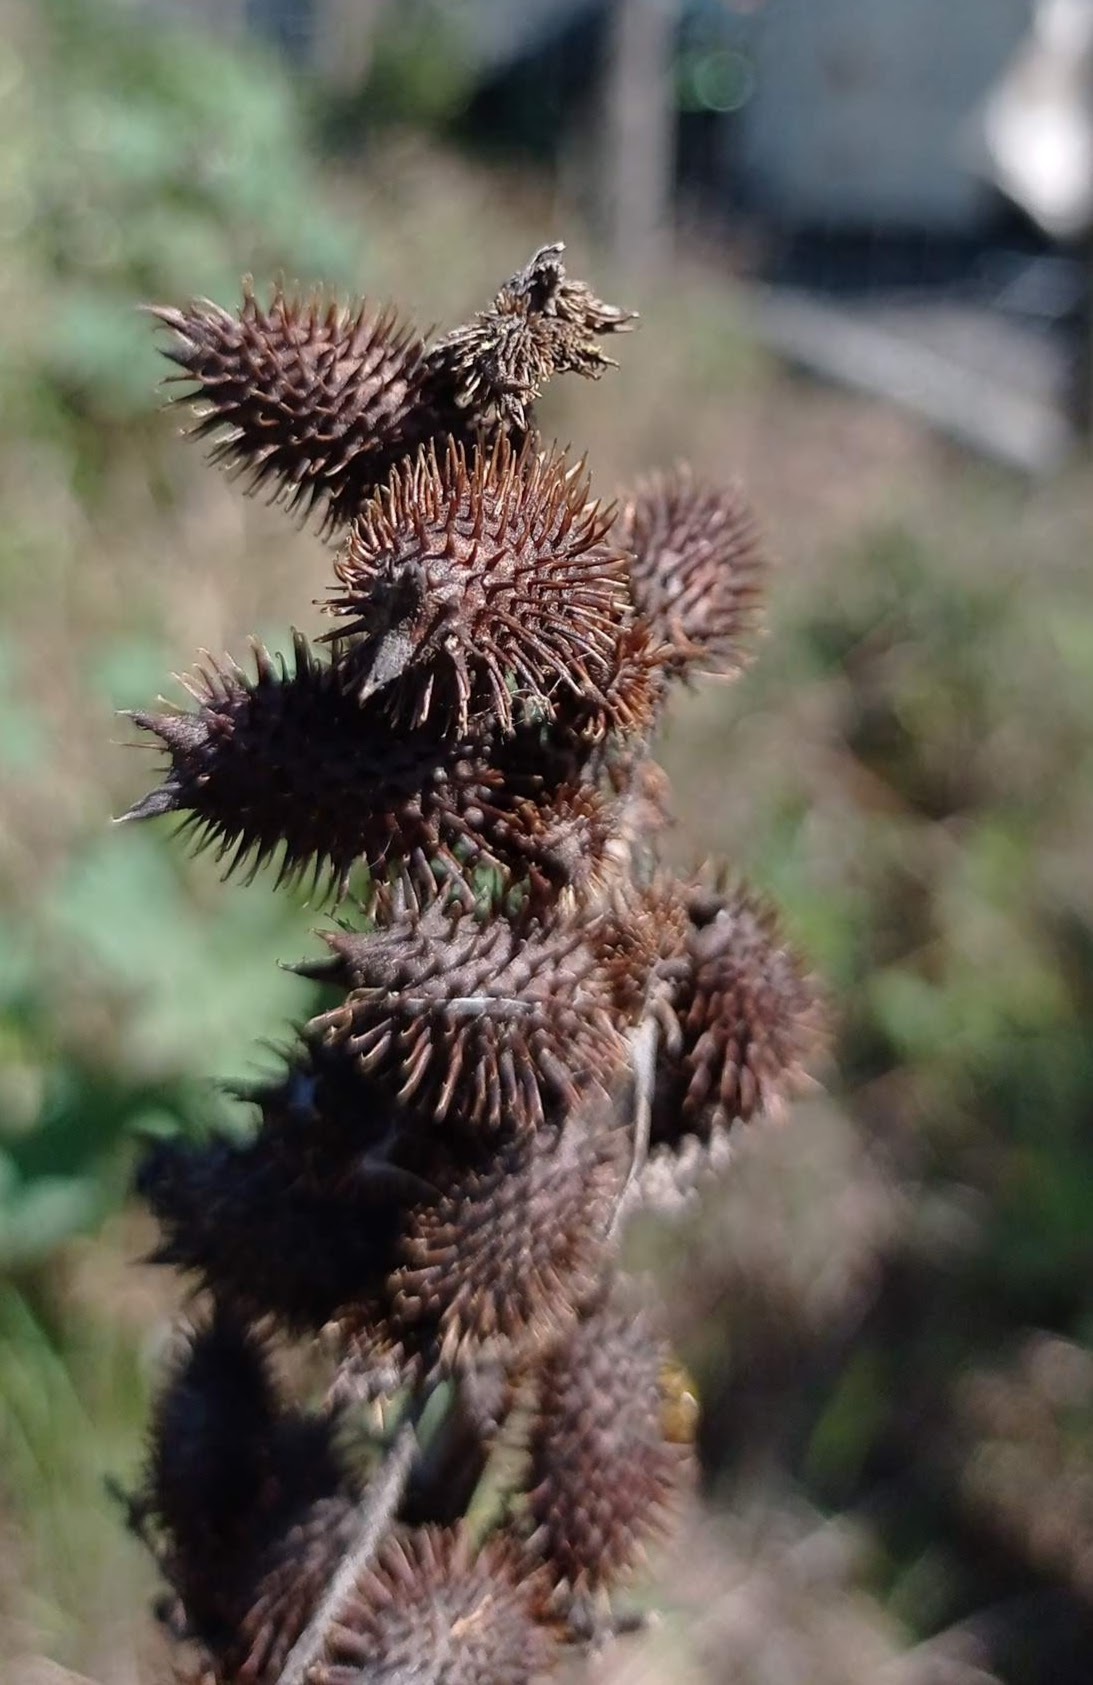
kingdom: Plantae
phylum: Tracheophyta
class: Magnoliopsida
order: Malpighiales
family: Euphorbiaceae
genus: Ricinus
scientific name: Ricinus communis
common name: Castor-oil-plant
